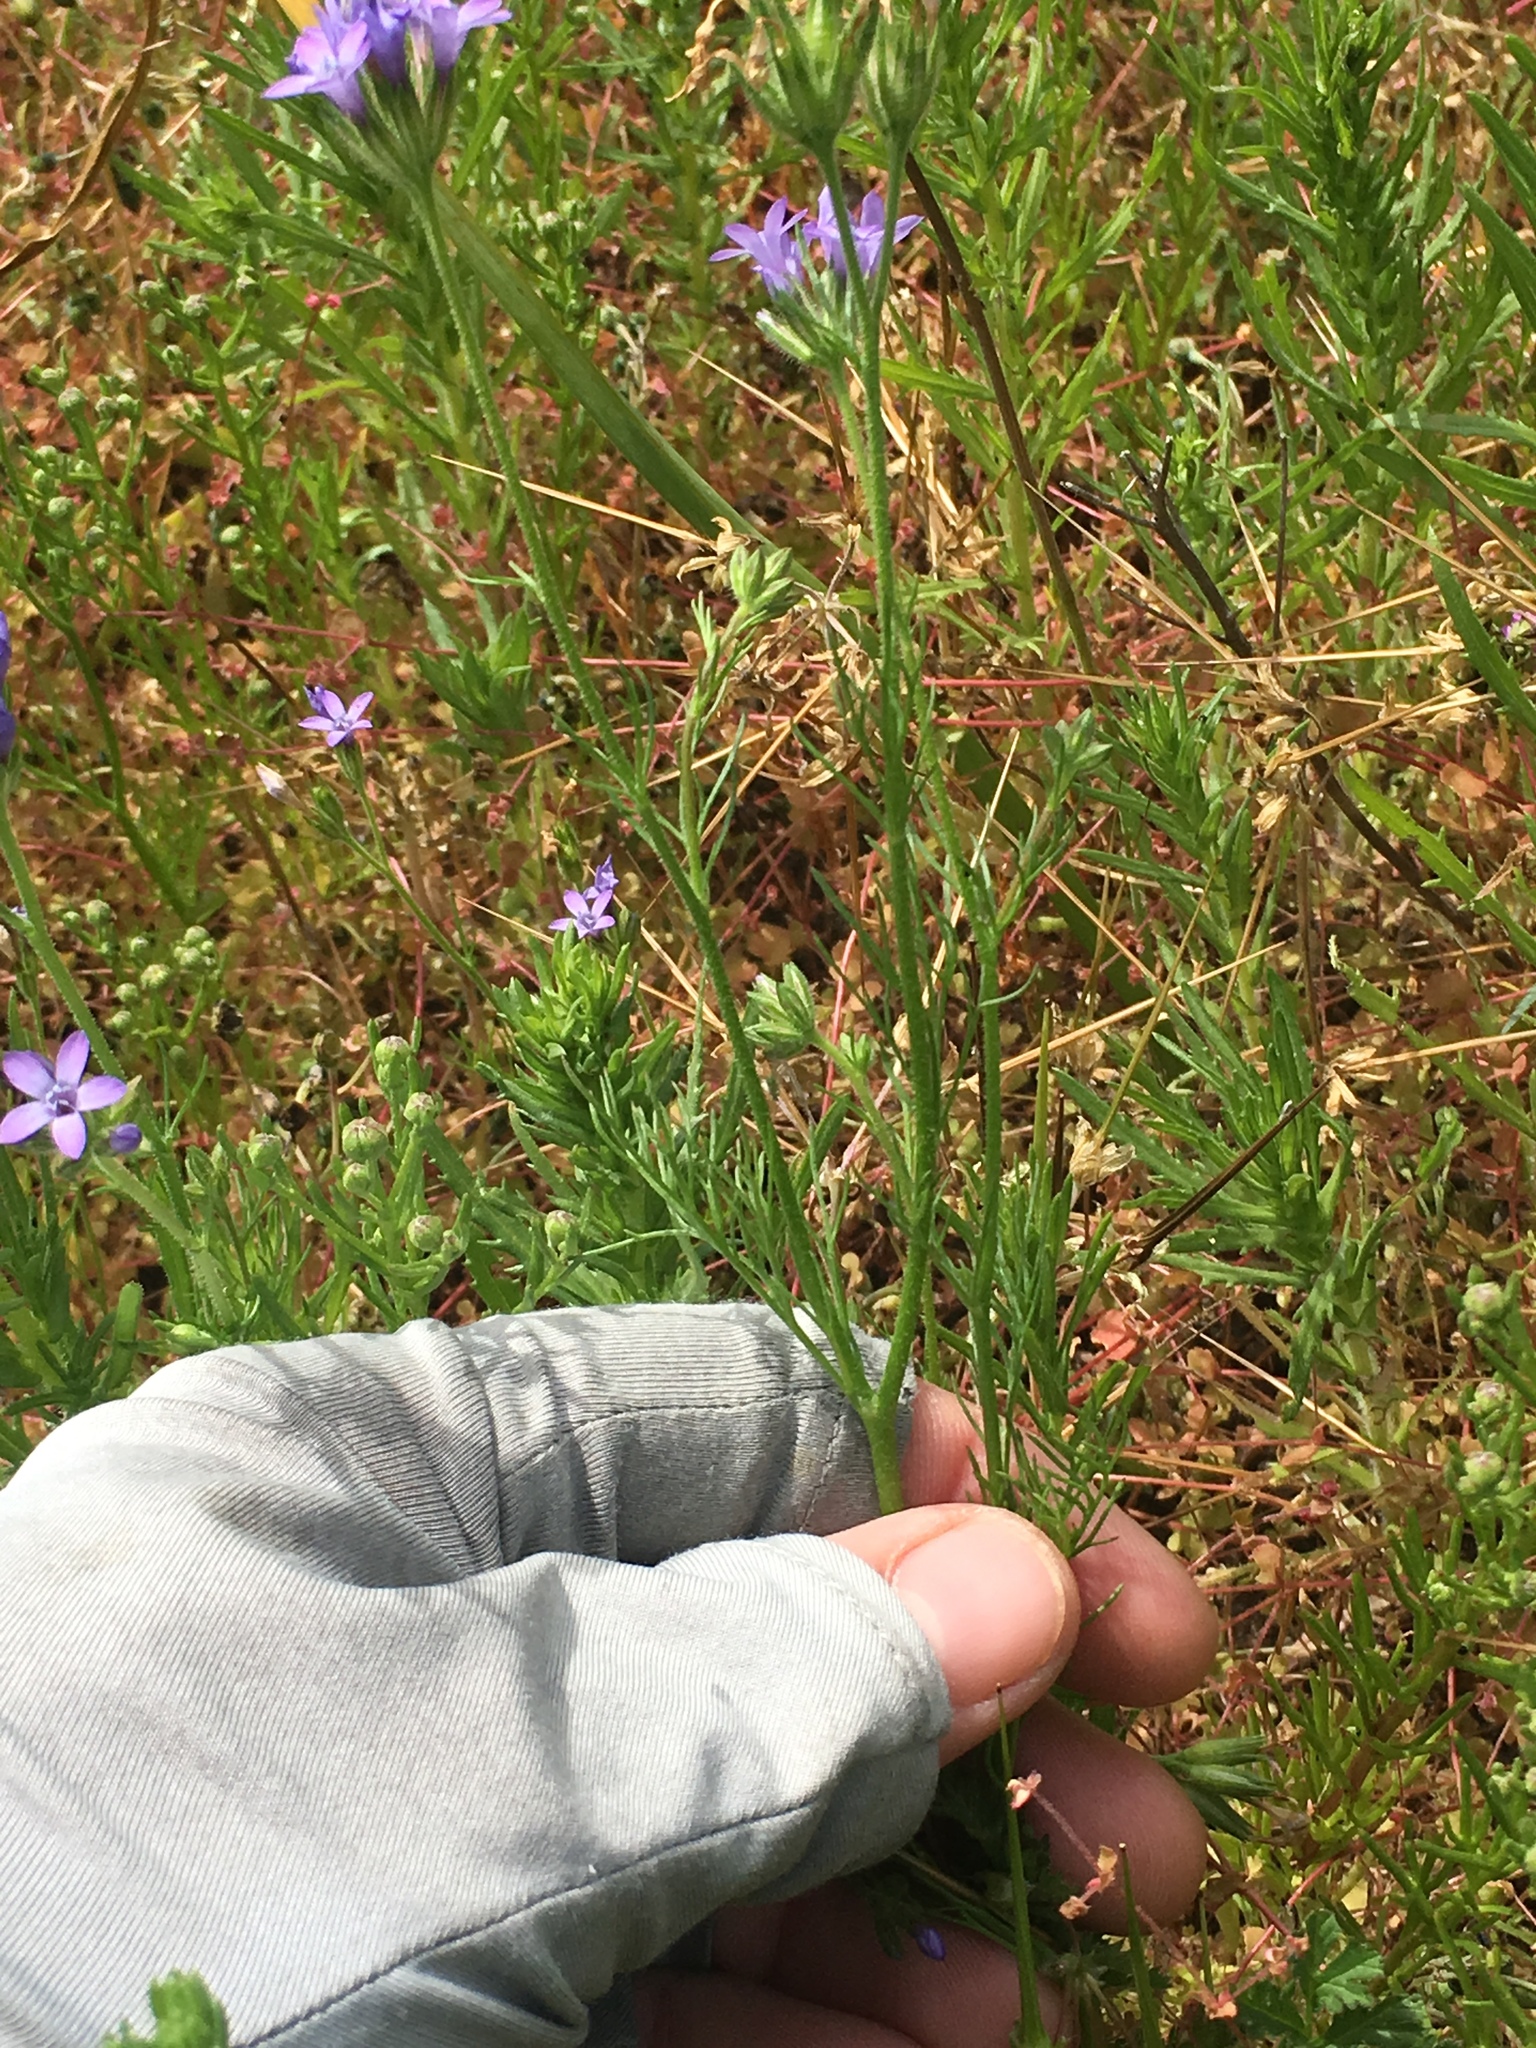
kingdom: Plantae
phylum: Tracheophyta
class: Magnoliopsida
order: Ericales
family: Polemoniaceae
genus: Gilia
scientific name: Gilia nevinii
